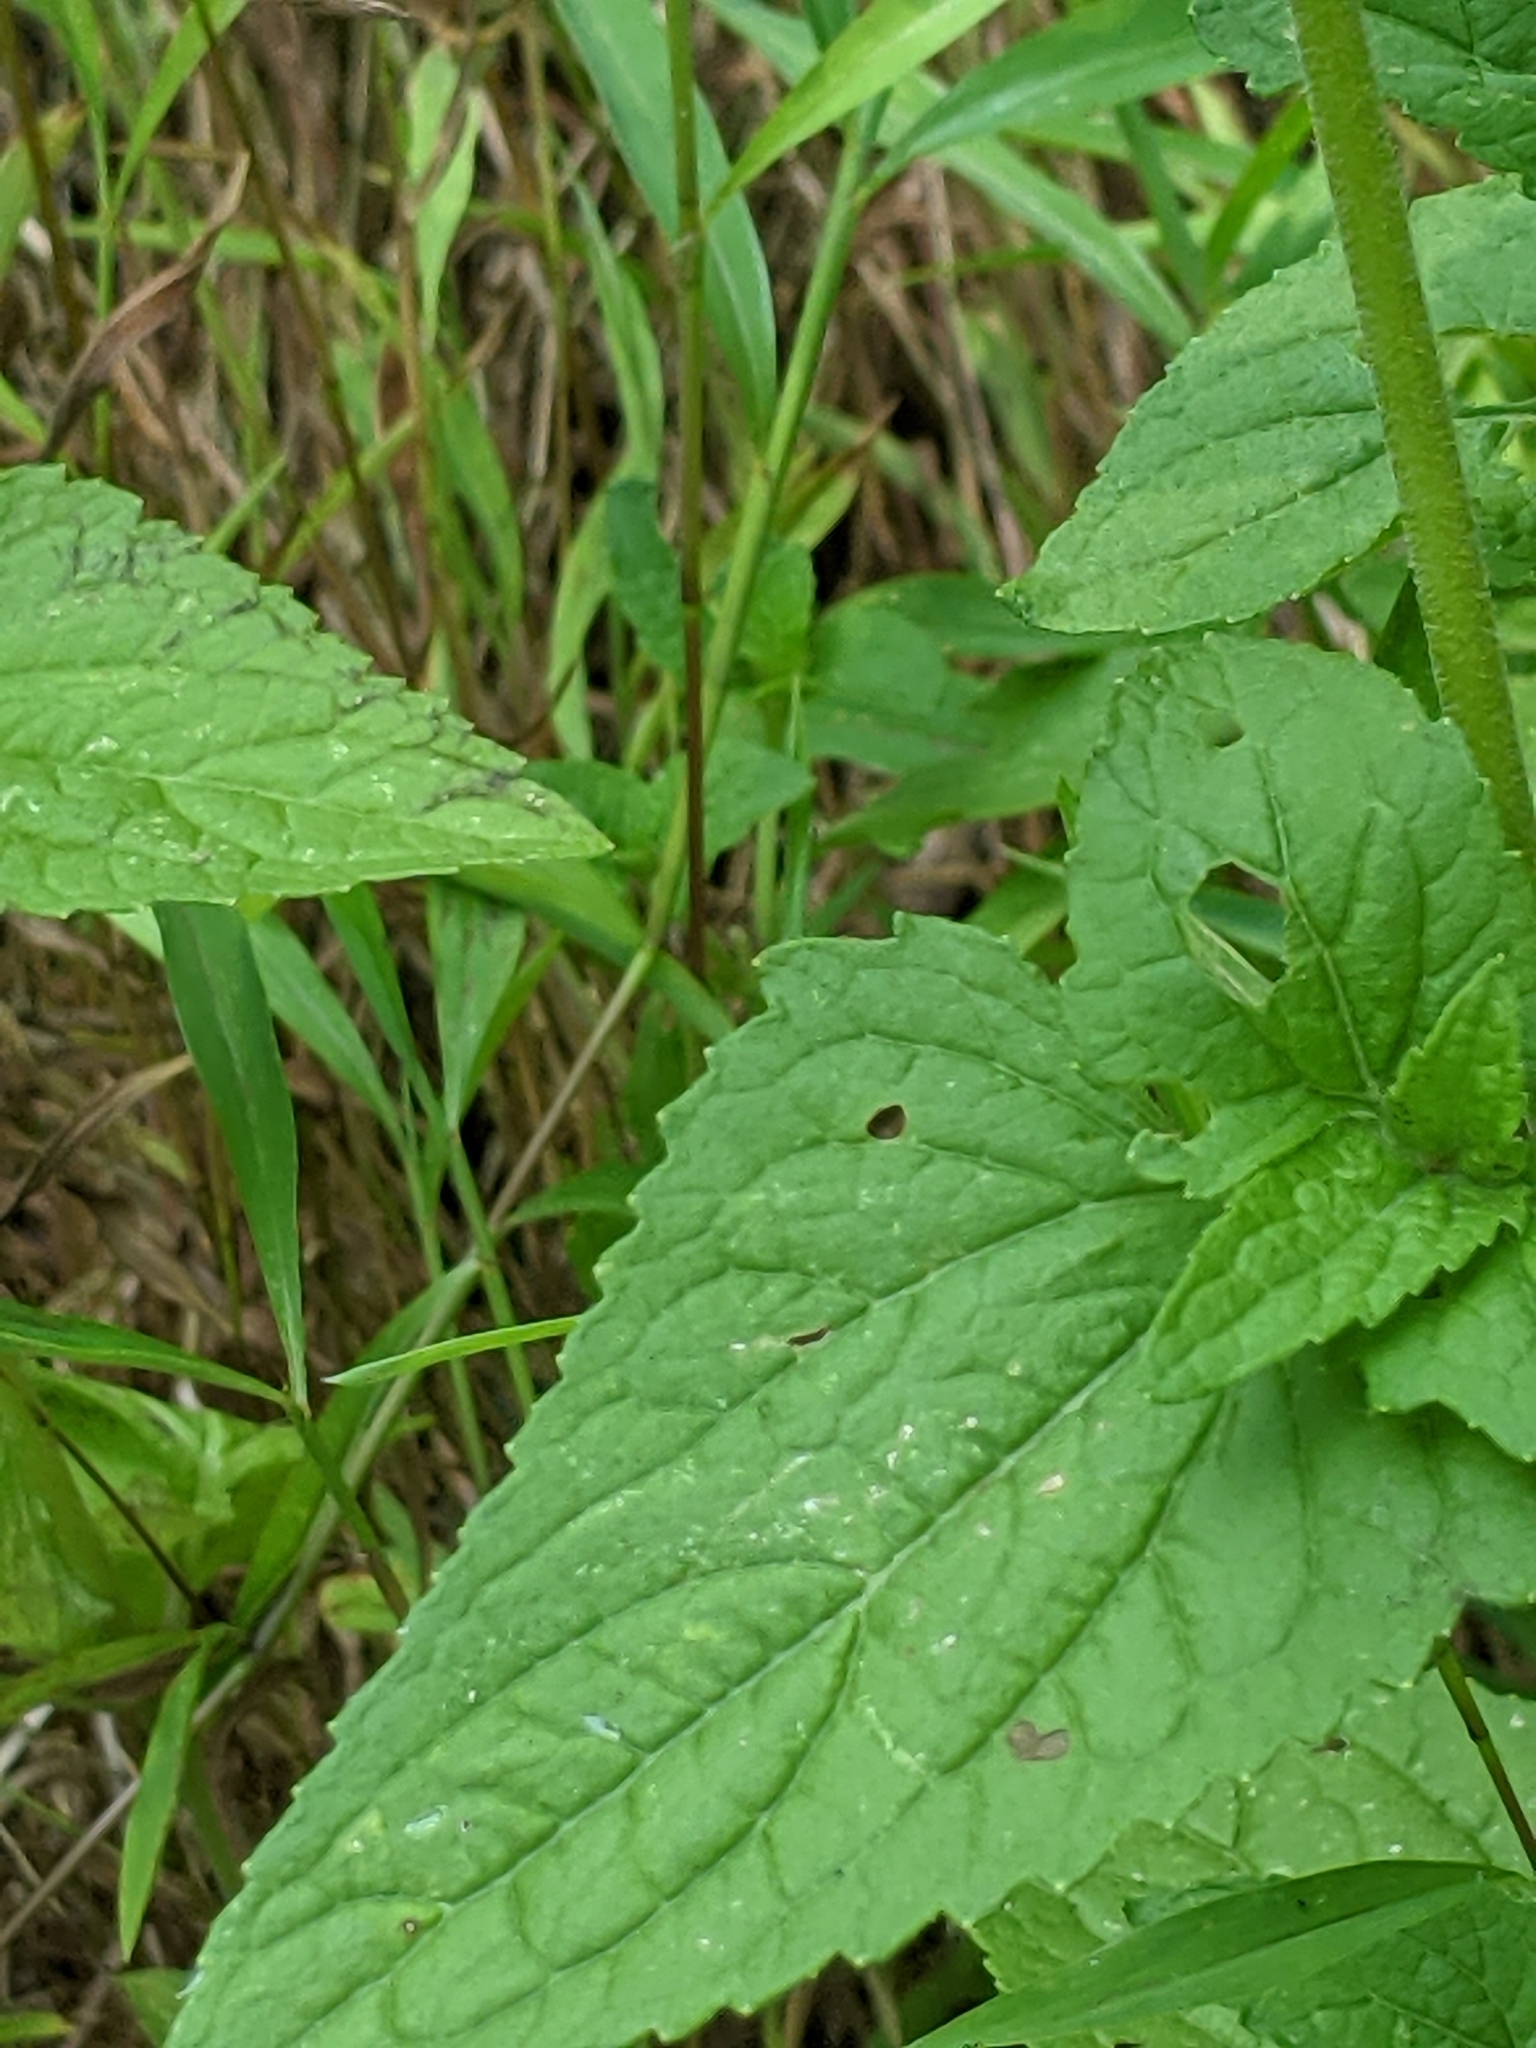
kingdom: Plantae
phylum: Tracheophyta
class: Magnoliopsida
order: Asterales
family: Asteraceae
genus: Conoclinium
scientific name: Conoclinium coelestinum
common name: Blue mistflower
